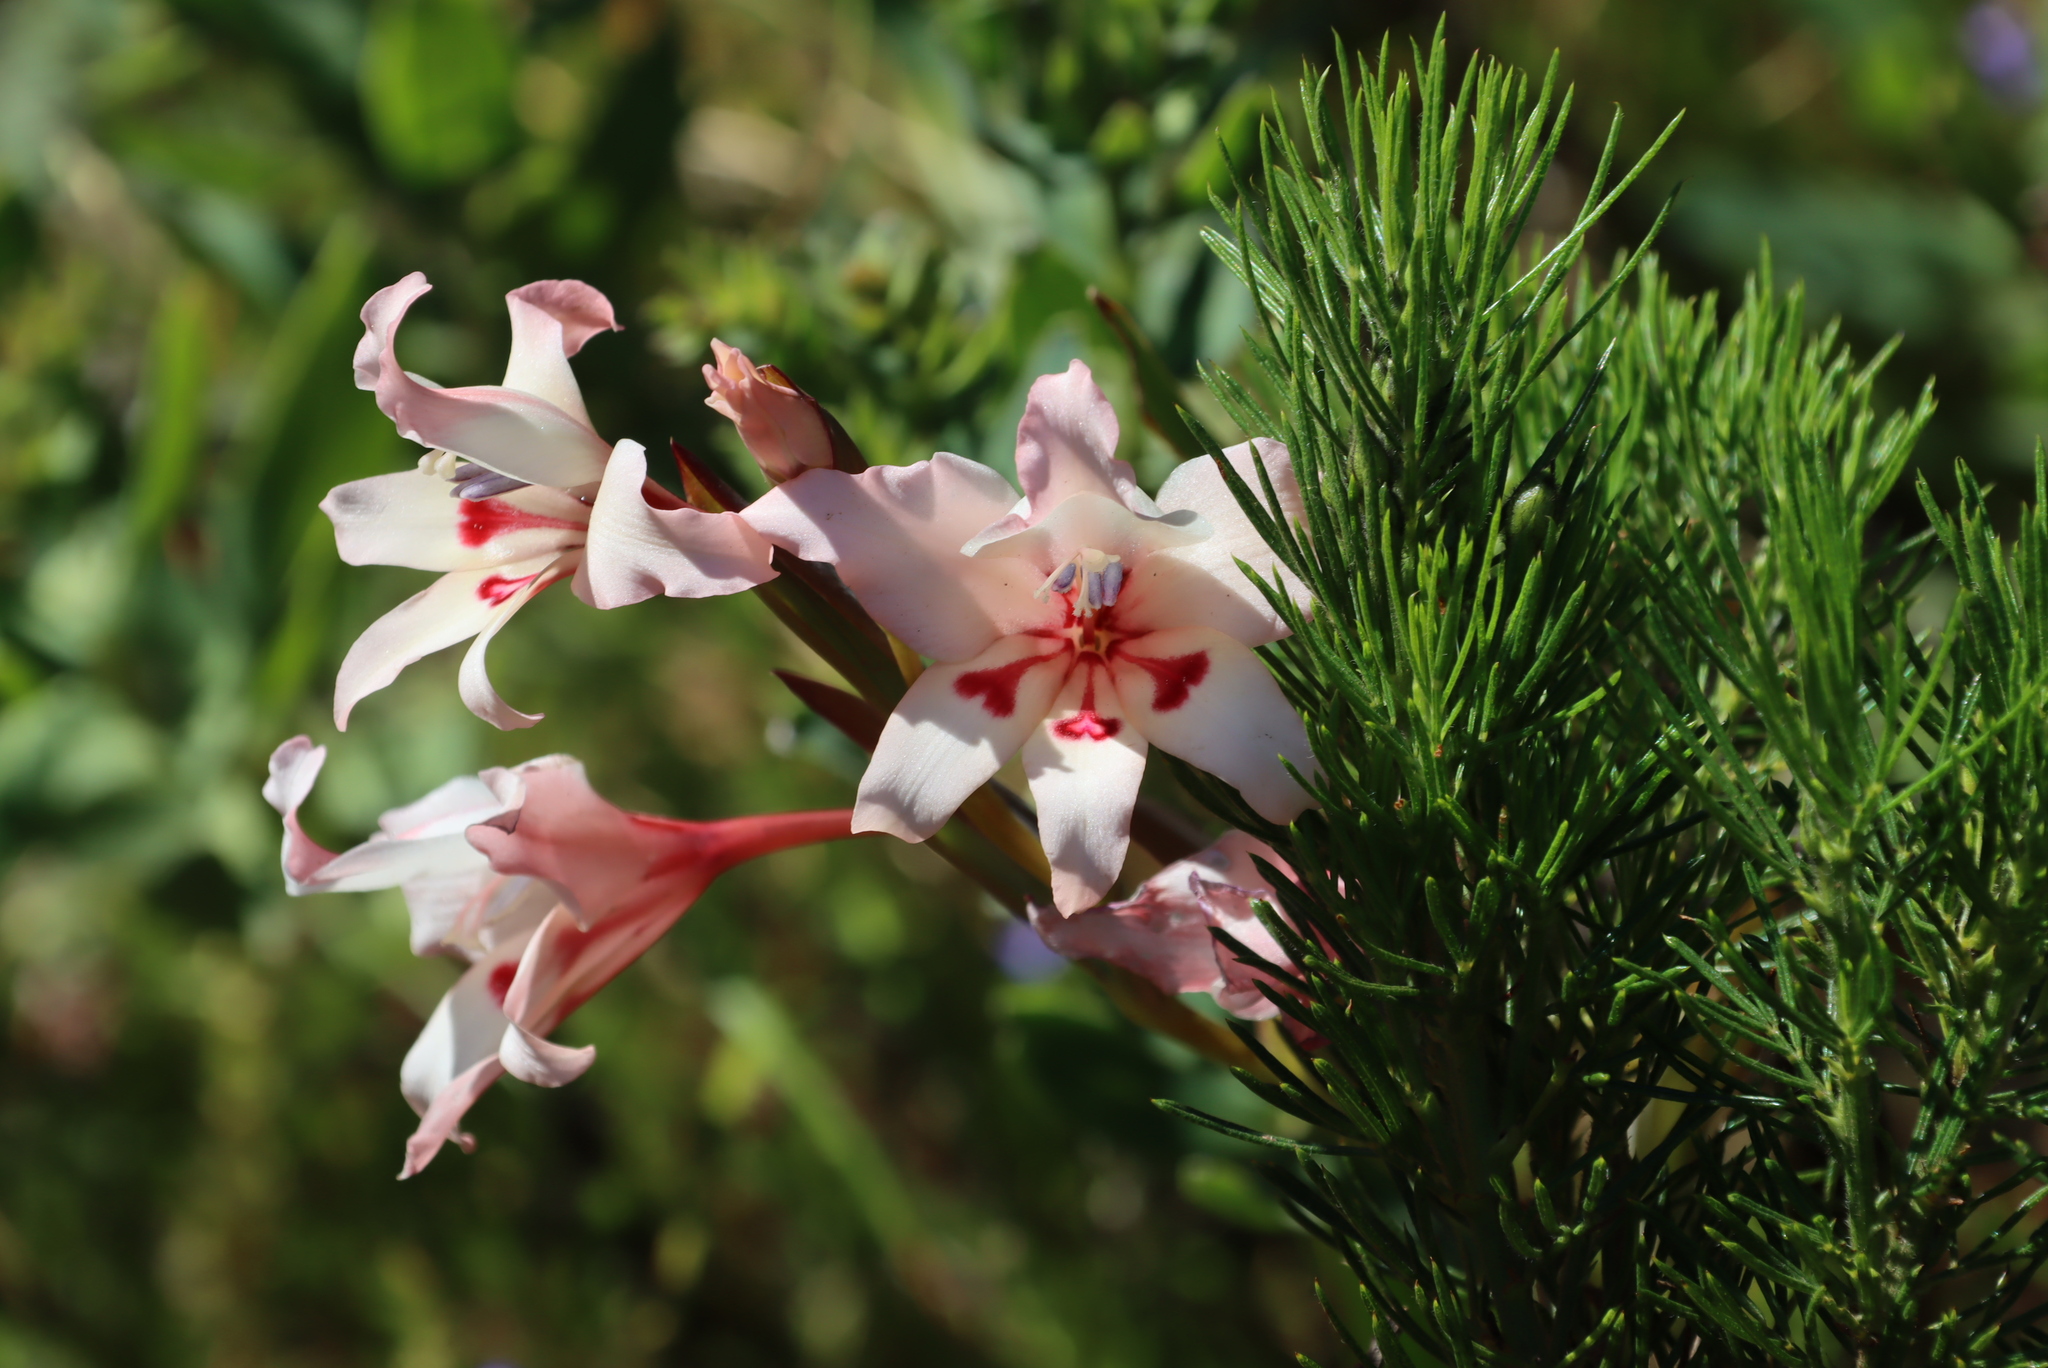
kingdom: Plantae
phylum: Tracheophyta
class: Liliopsida
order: Asparagales
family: Iridaceae
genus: Gladiolus
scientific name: Gladiolus carneus
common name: Painted-lady
